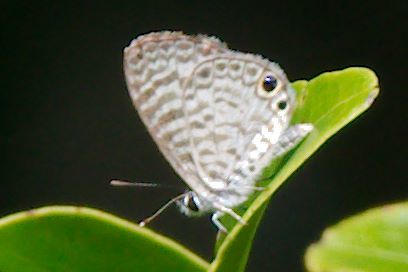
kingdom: Animalia
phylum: Arthropoda
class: Insecta
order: Lepidoptera
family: Lycaenidae
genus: Leptotes
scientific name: Leptotes cassius
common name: Cassius blue
